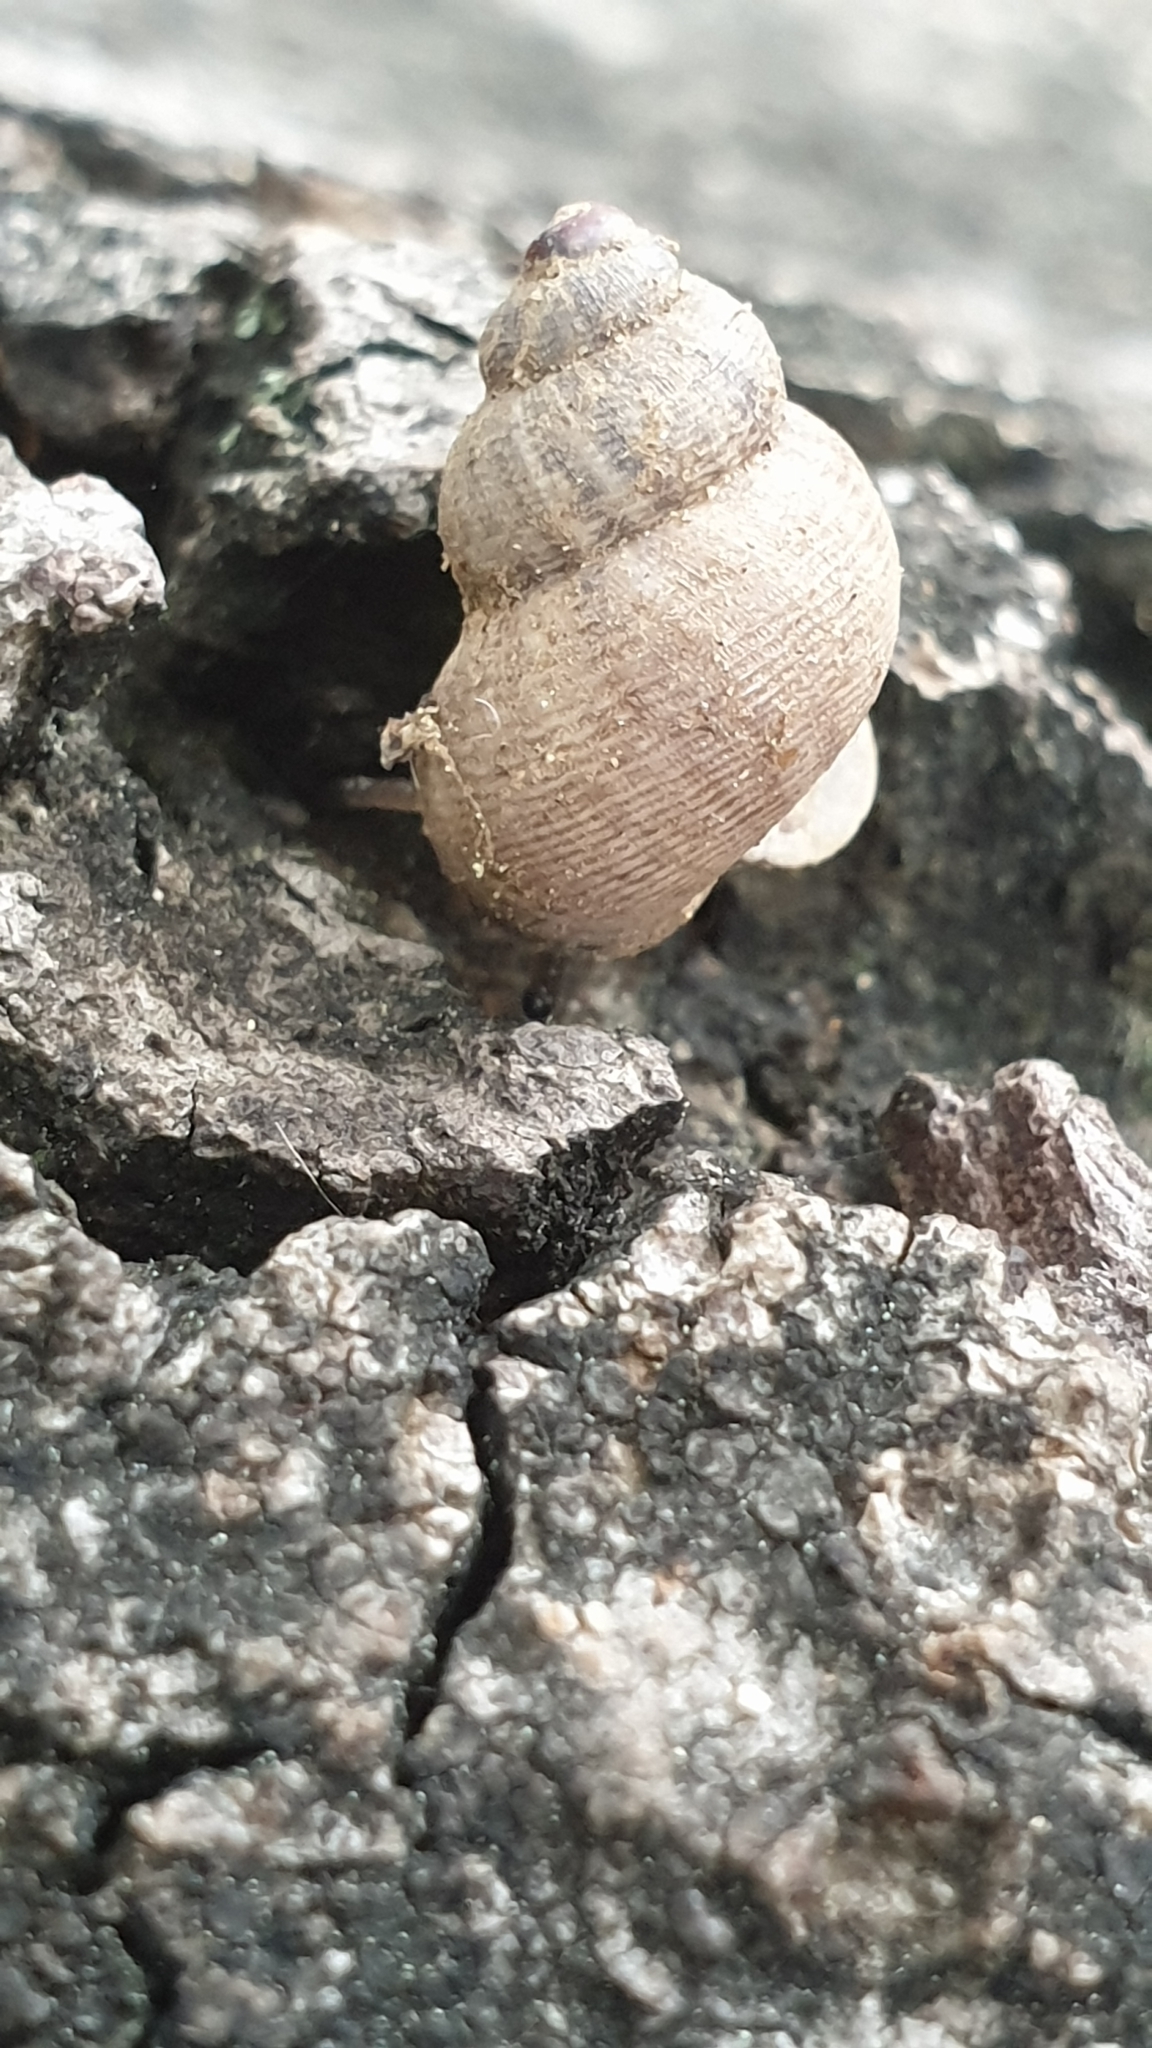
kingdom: Animalia
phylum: Mollusca
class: Gastropoda
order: Littorinimorpha
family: Pomatiidae
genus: Pomatias
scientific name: Pomatias elegans
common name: Red-mouthed snail
